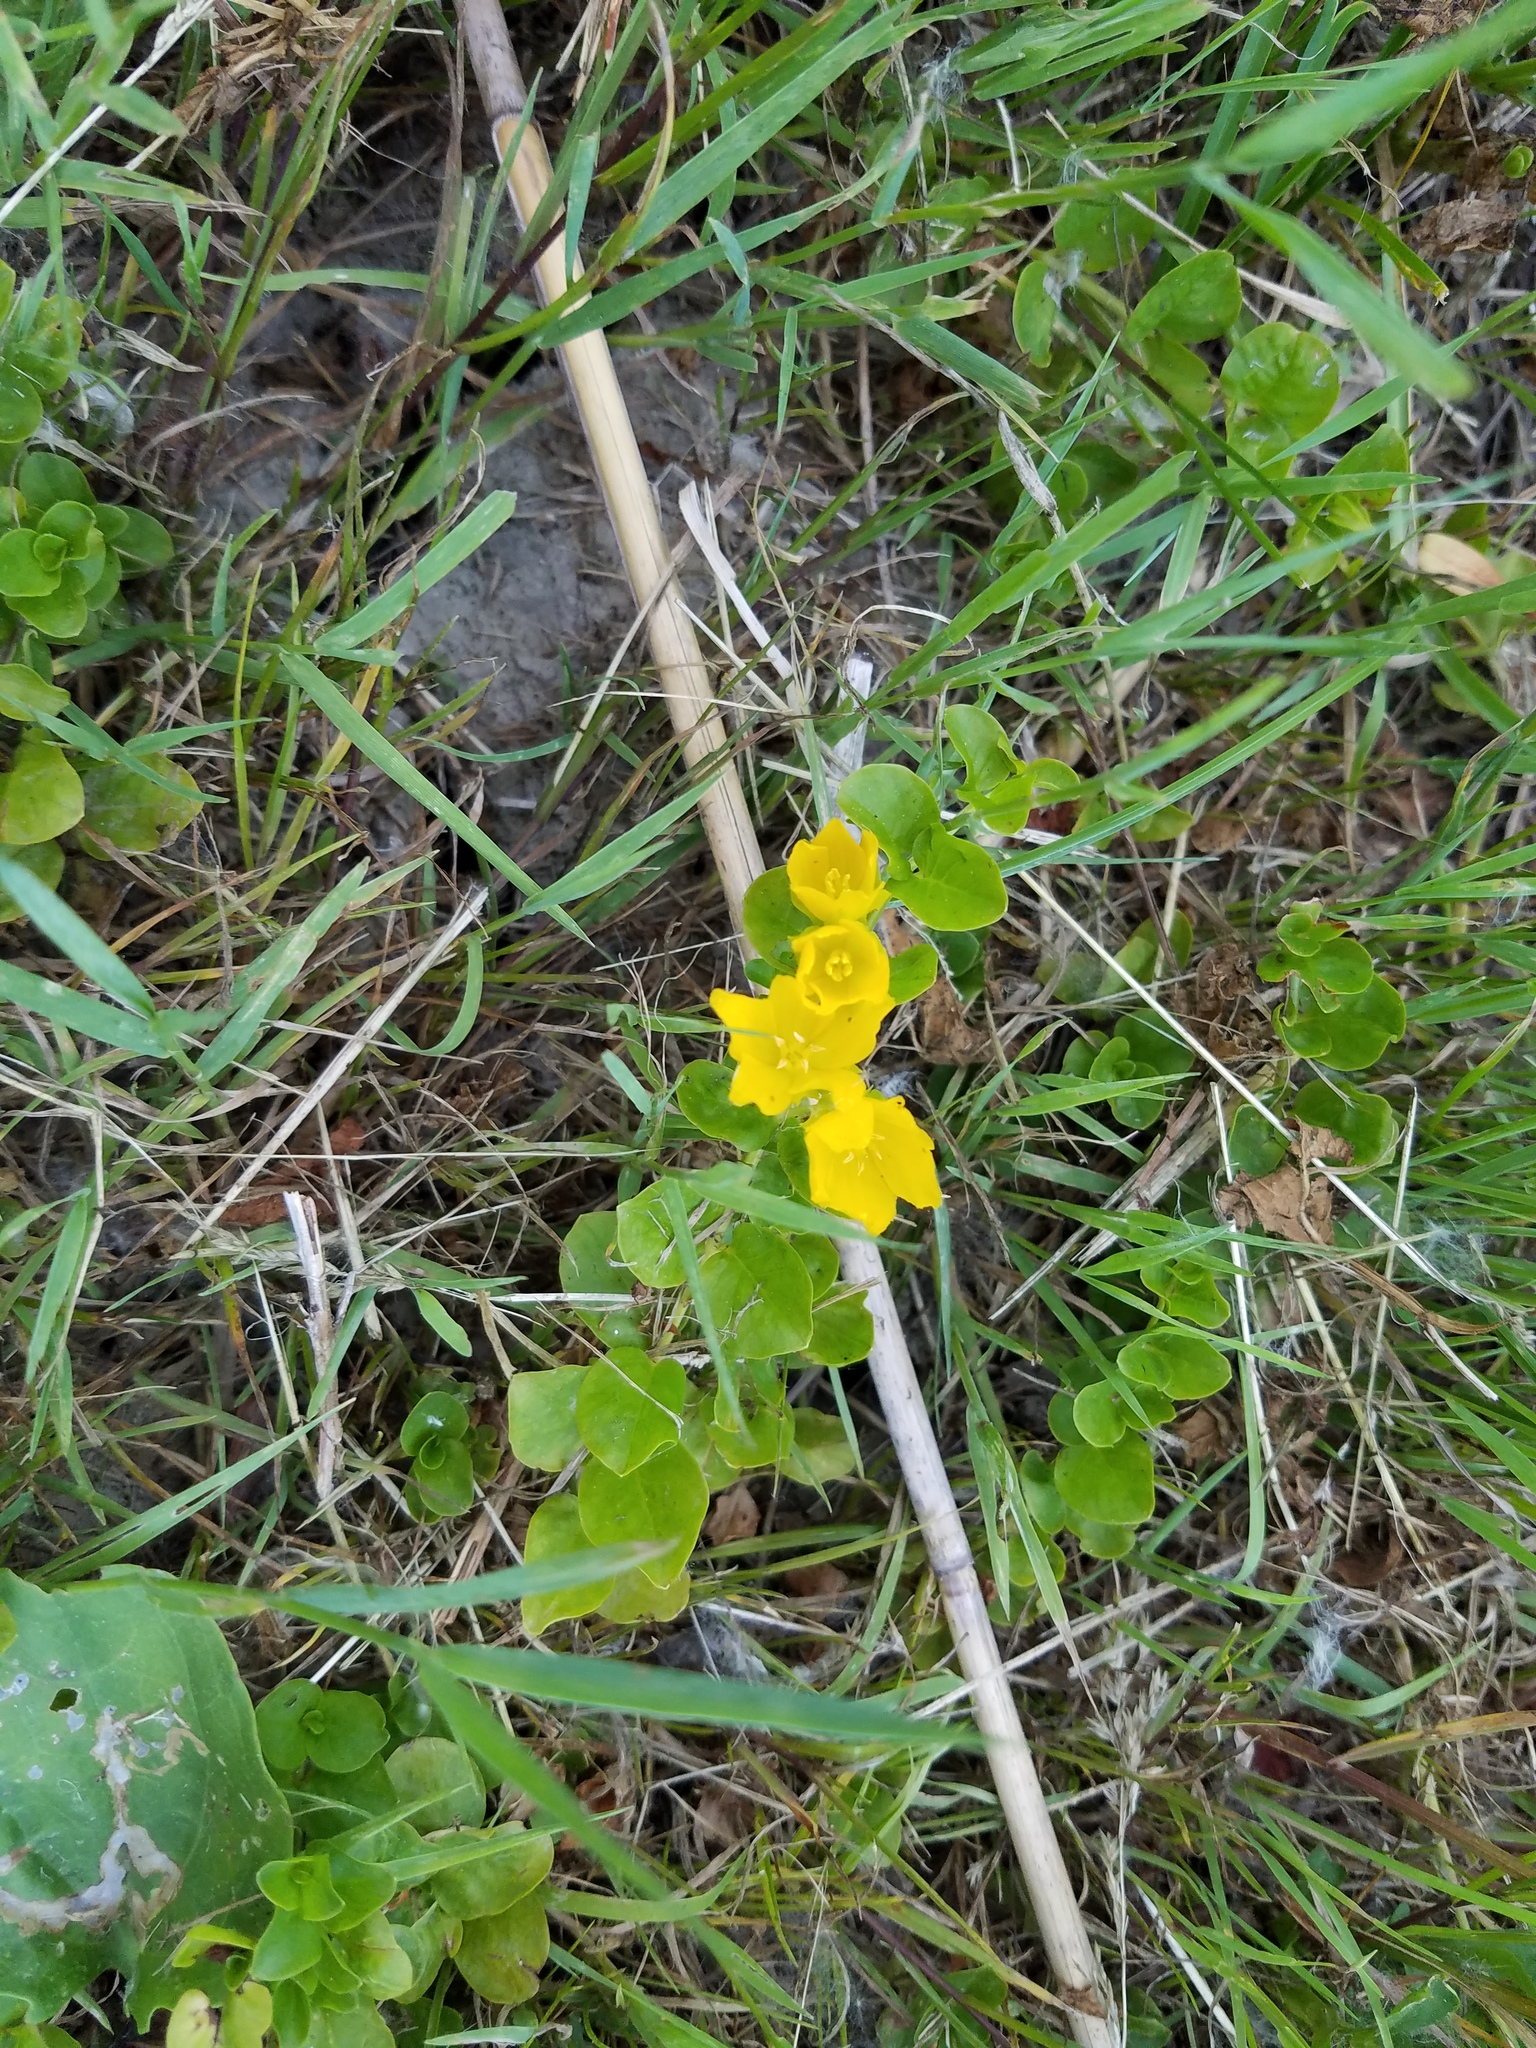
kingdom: Plantae
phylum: Tracheophyta
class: Magnoliopsida
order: Ericales
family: Primulaceae
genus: Lysimachia
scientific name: Lysimachia nummularia
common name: Moneywort
